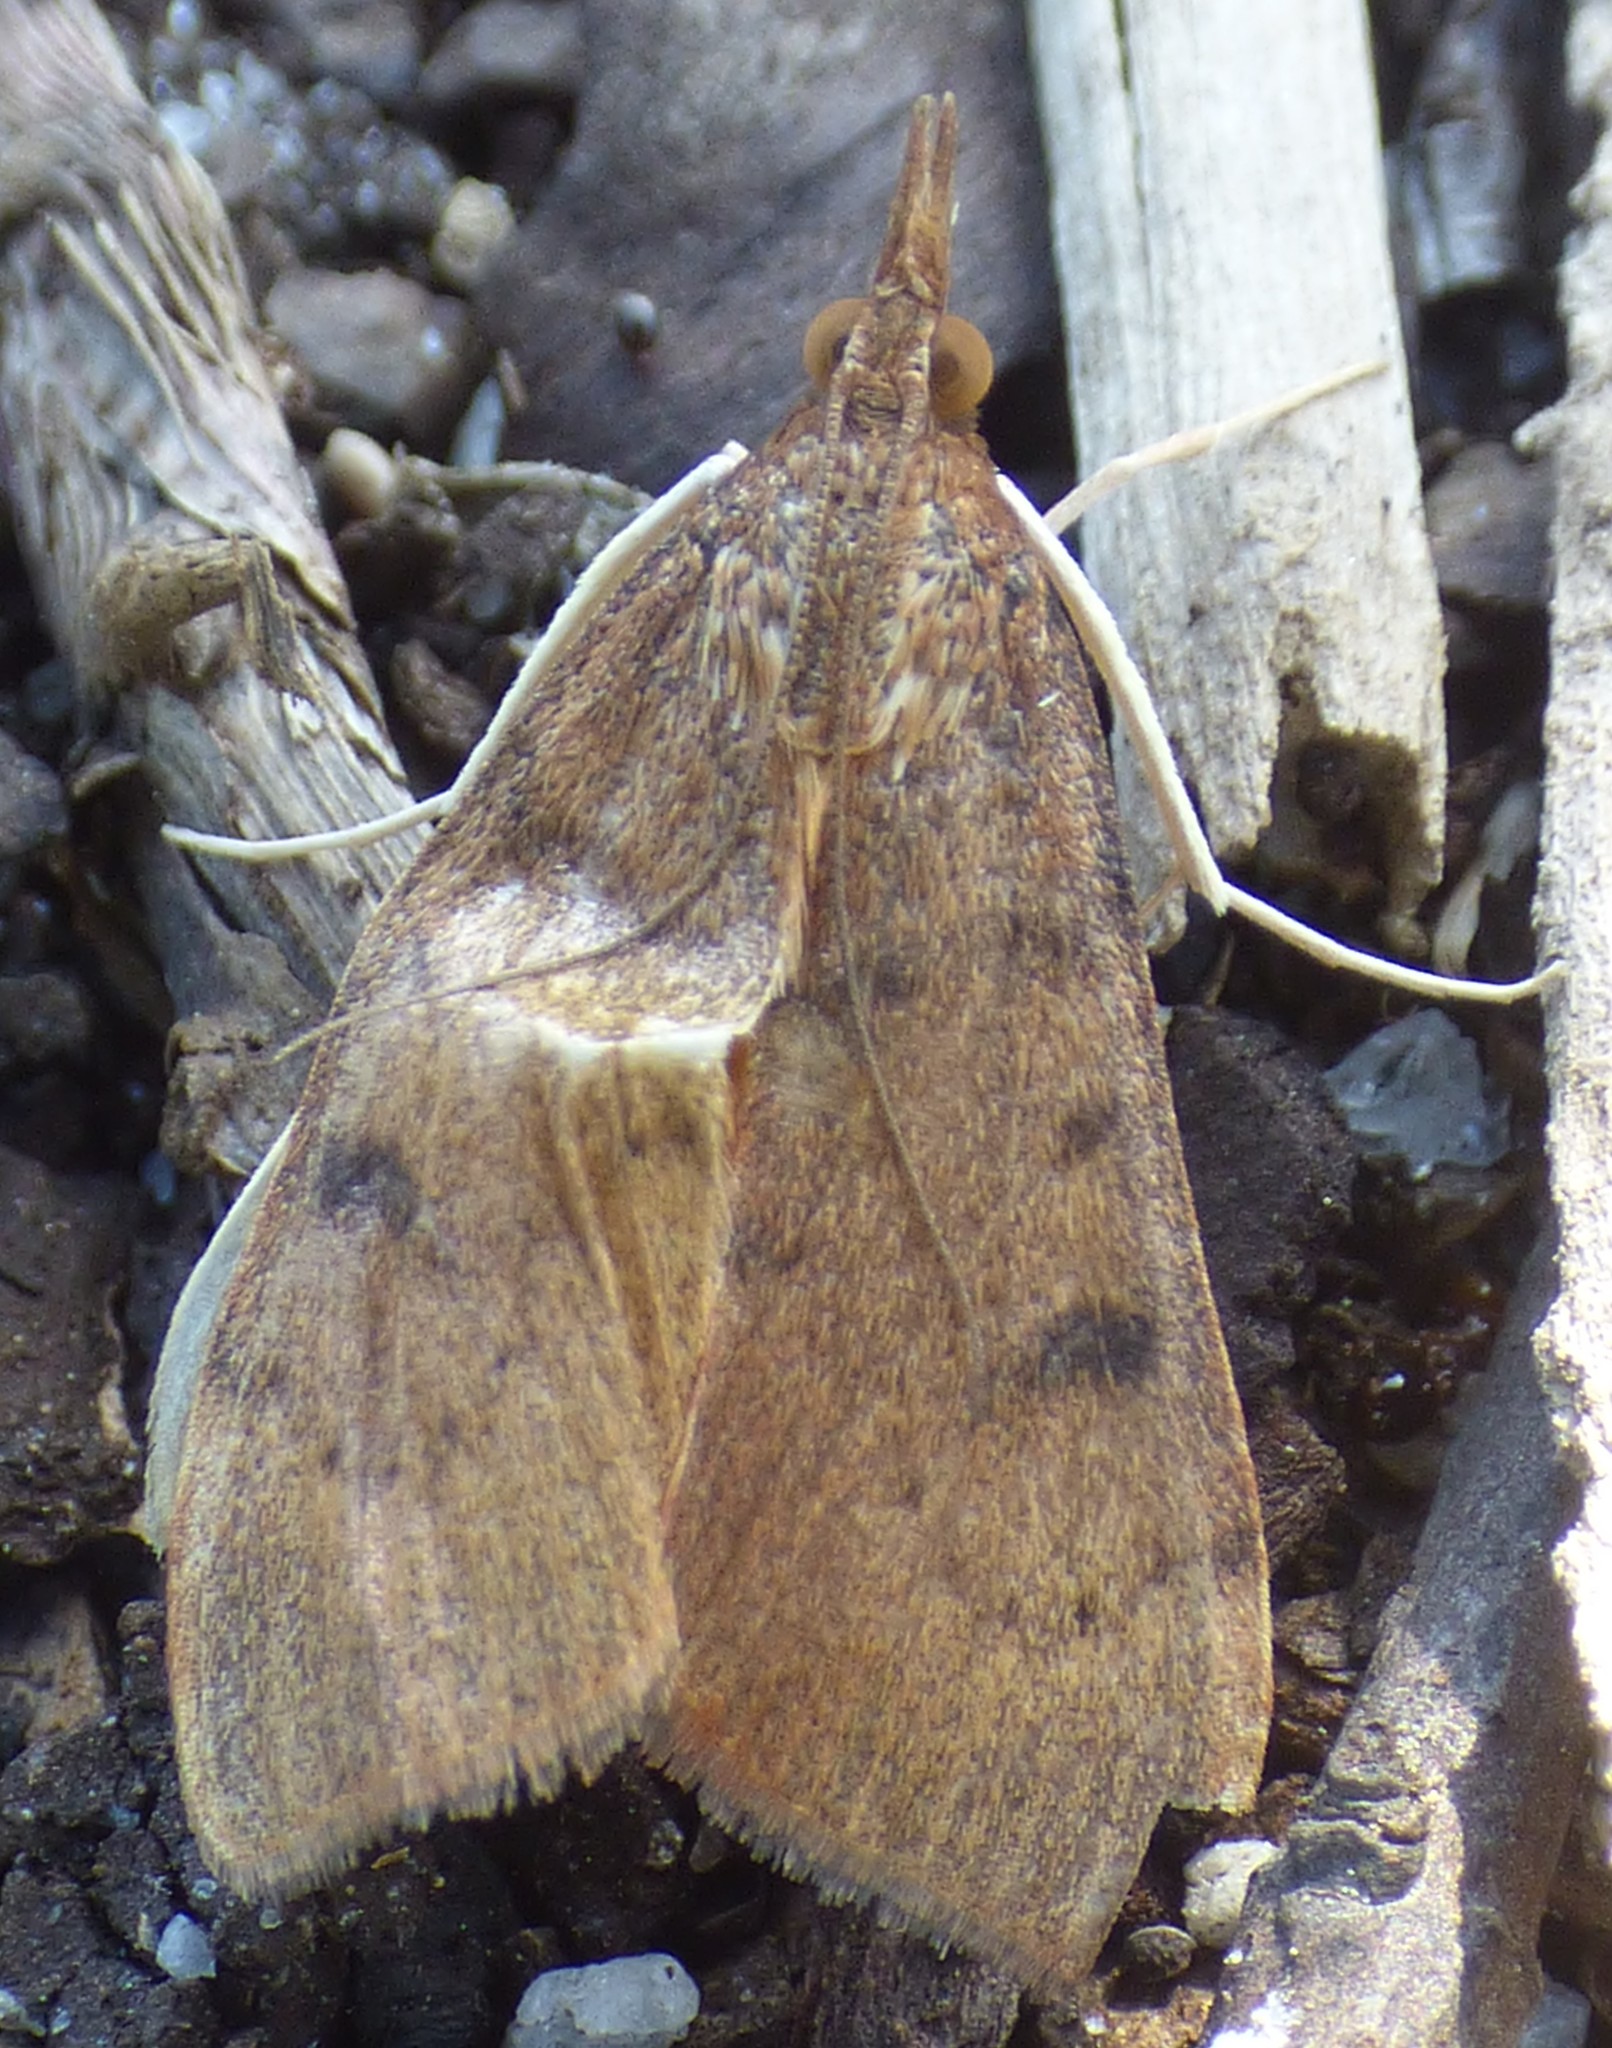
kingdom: Animalia
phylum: Arthropoda
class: Insecta
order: Lepidoptera
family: Crambidae
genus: Uresiphita
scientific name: Uresiphita reversalis
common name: Genista broom moth
